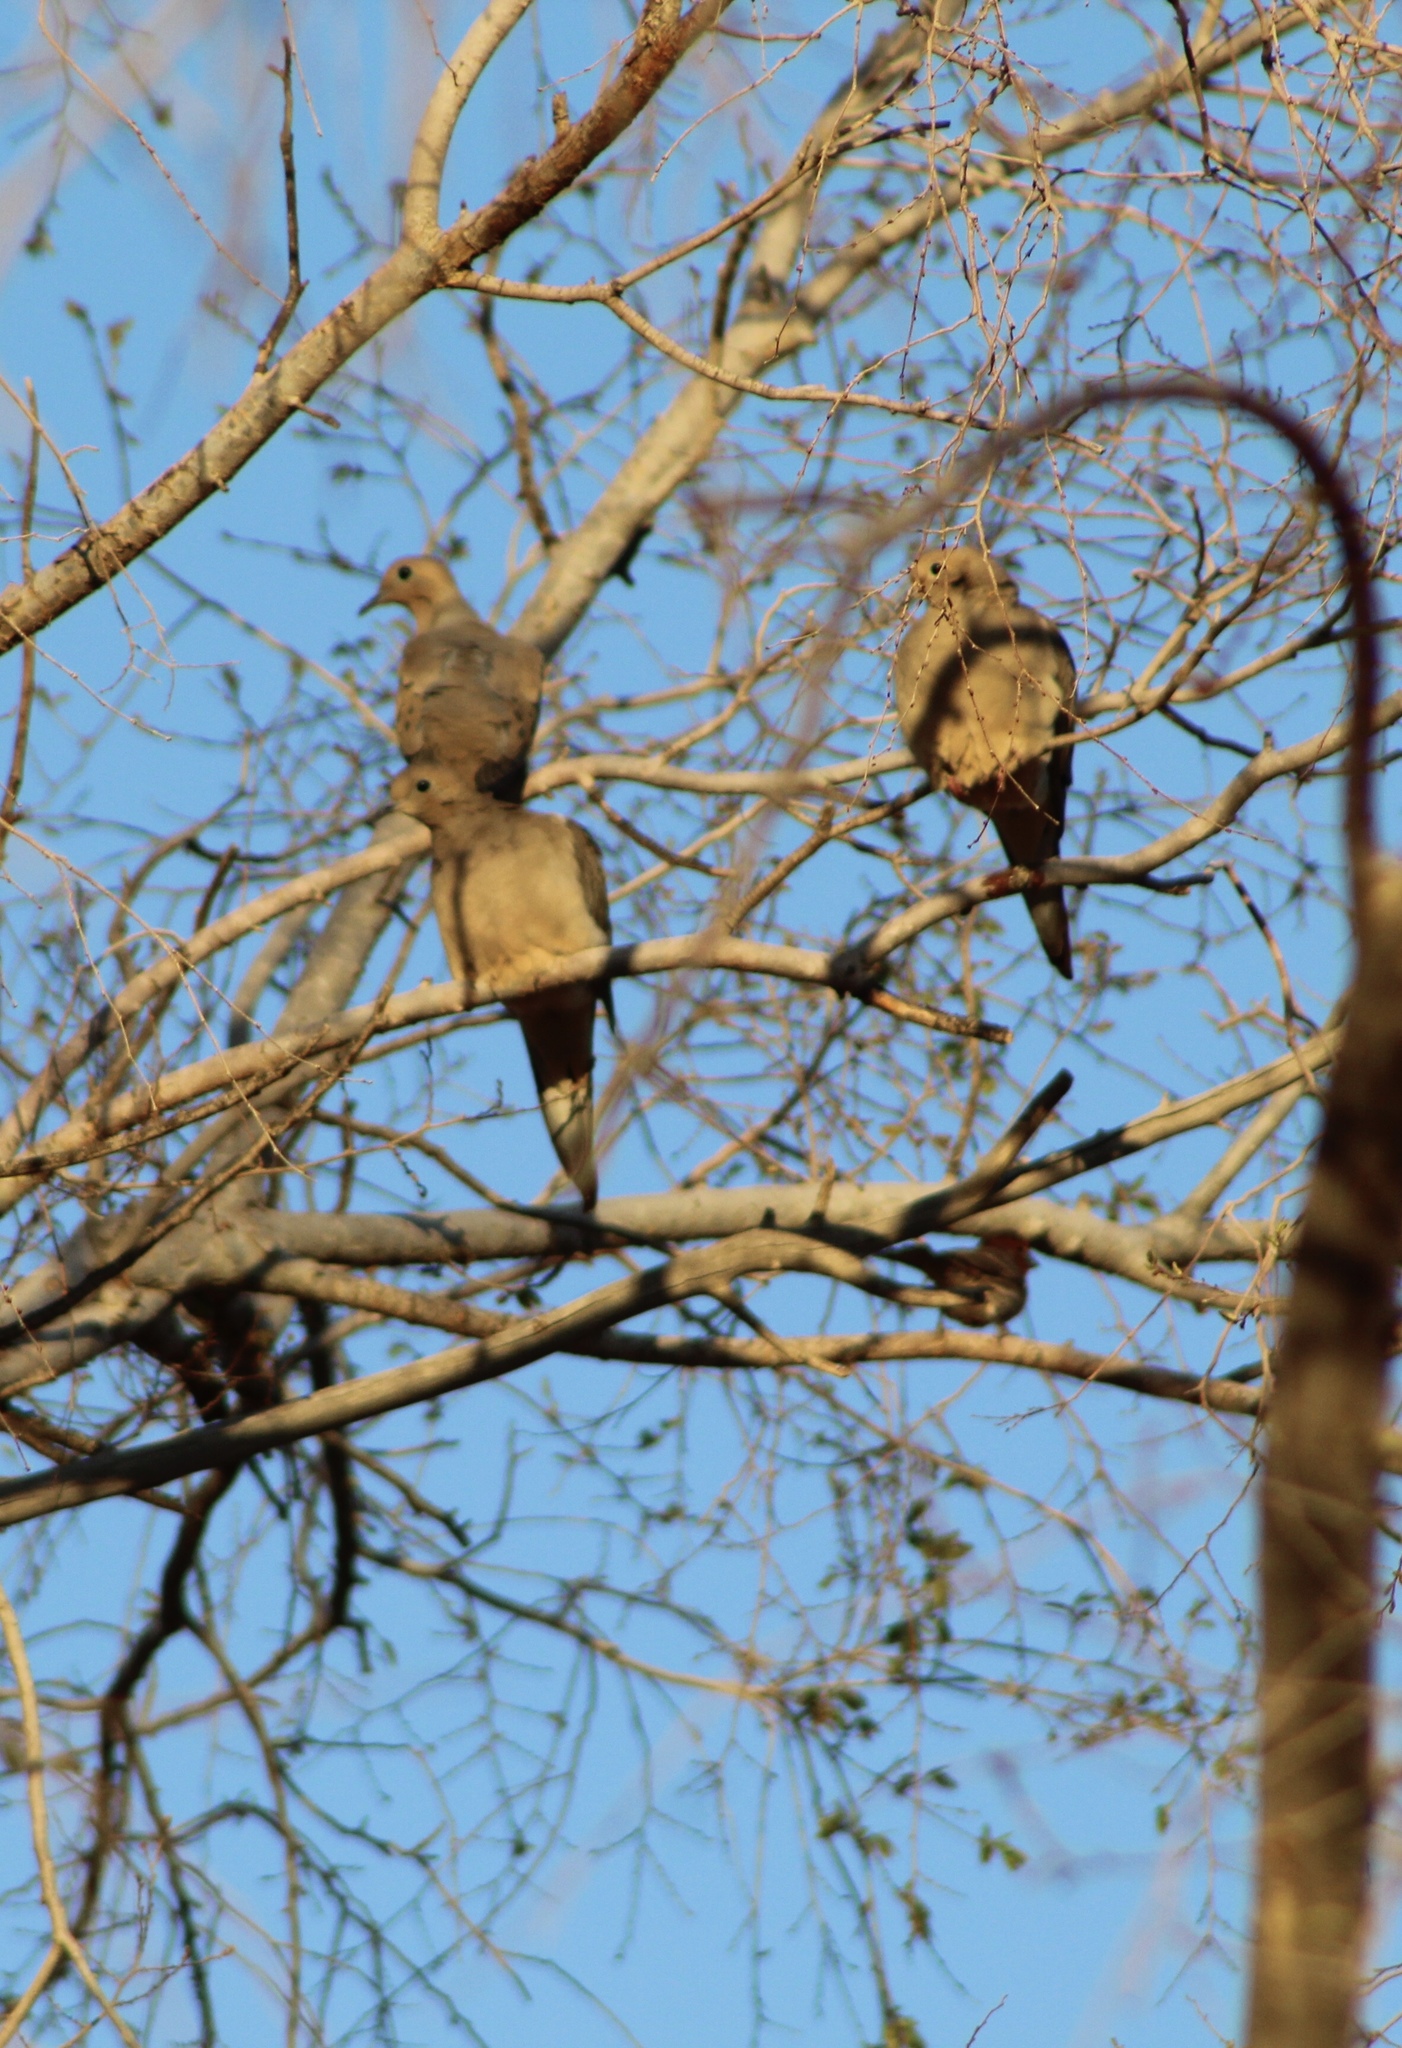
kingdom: Animalia
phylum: Chordata
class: Aves
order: Columbiformes
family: Columbidae
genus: Zenaida
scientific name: Zenaida macroura
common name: Mourning dove
